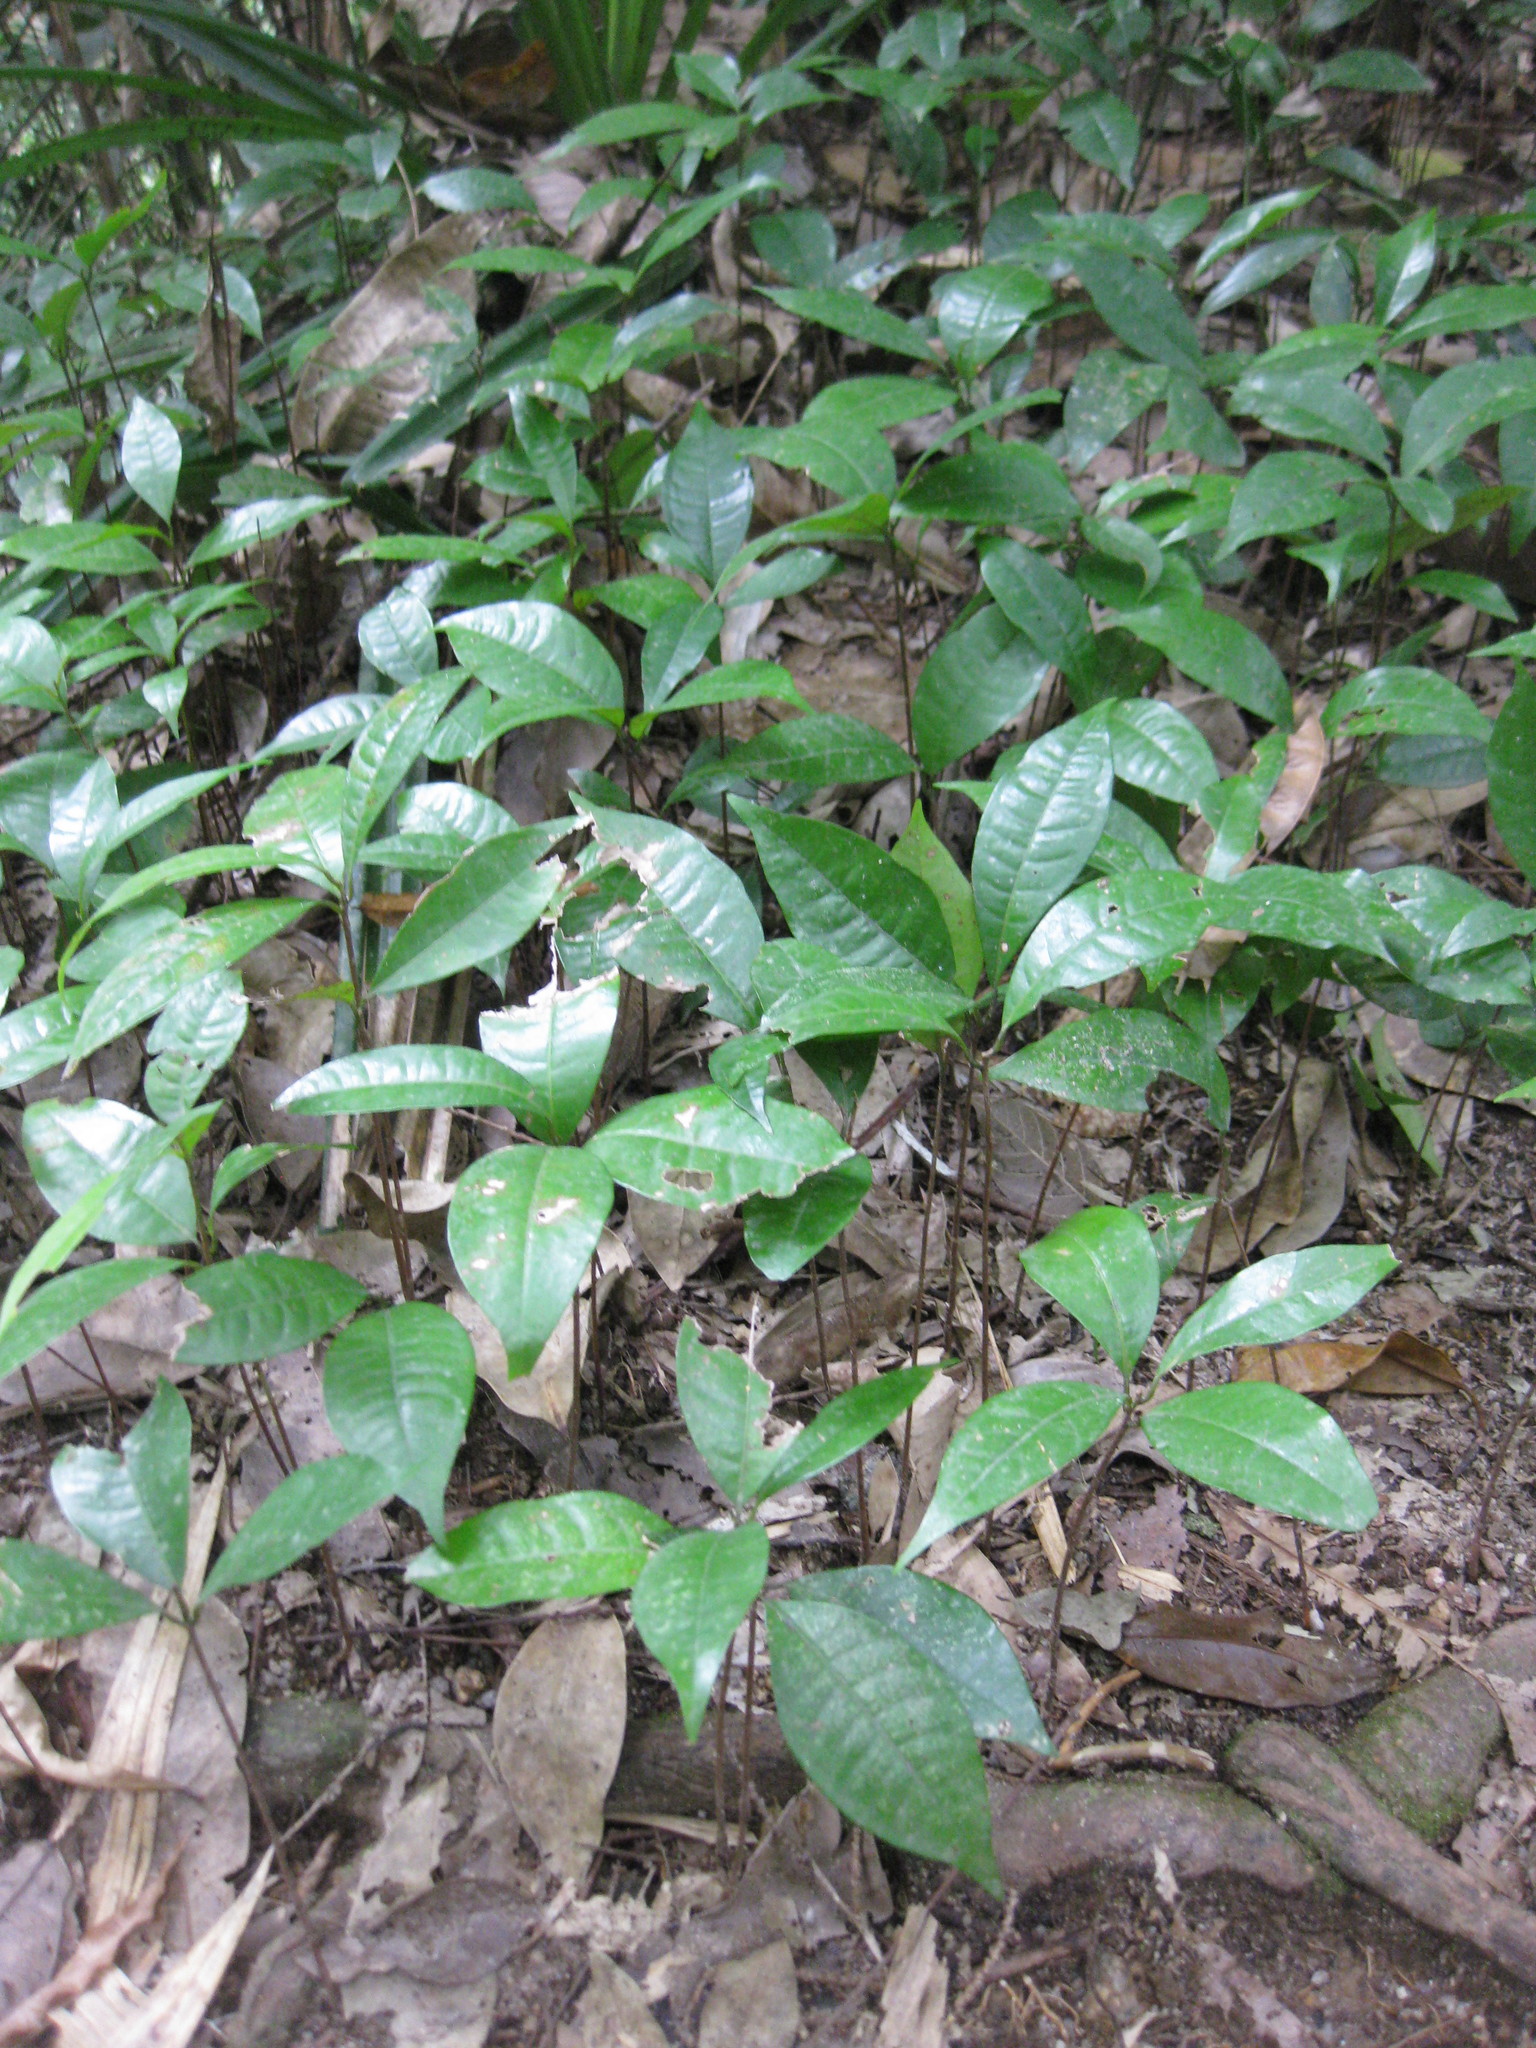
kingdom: Plantae
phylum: Tracheophyta
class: Magnoliopsida
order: Myrtales
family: Myrtaceae
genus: Lindsayomyrtus
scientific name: Lindsayomyrtus racemoides
